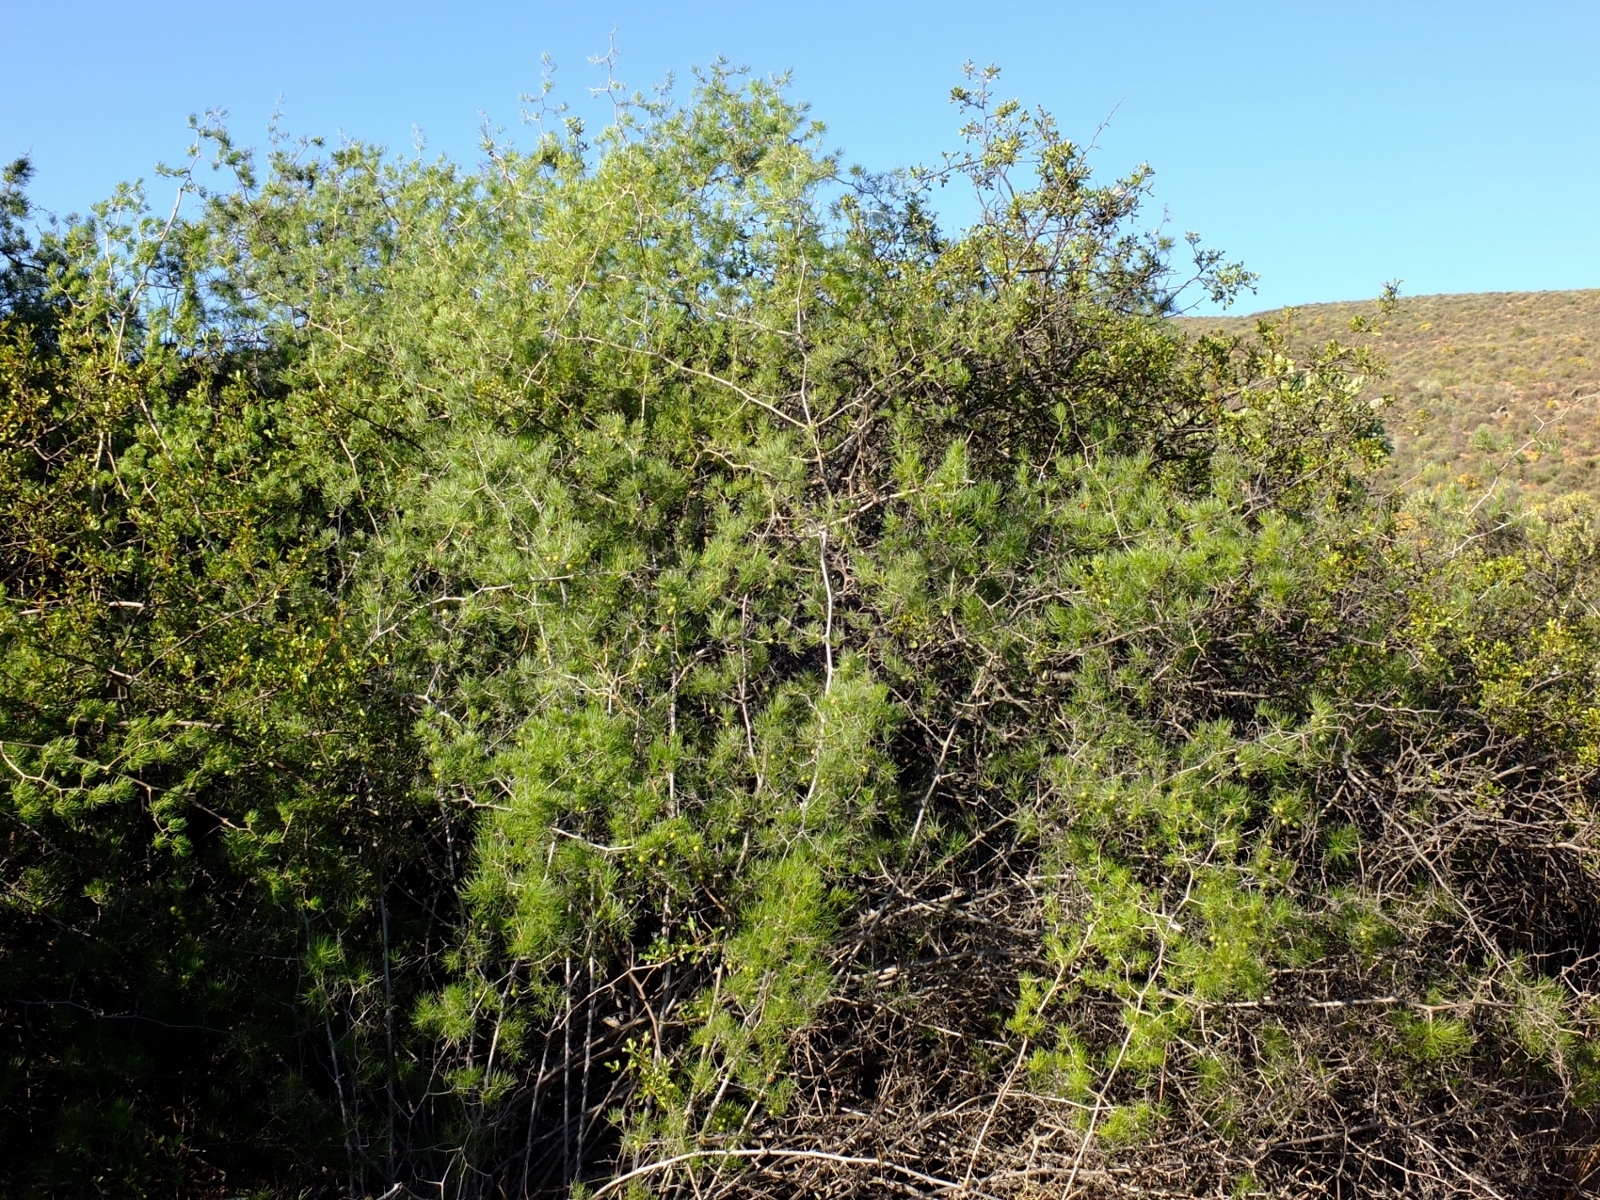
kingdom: Plantae
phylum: Tracheophyta
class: Liliopsida
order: Asparagales
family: Asparagaceae
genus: Asparagus
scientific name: Asparagus retrofractus
